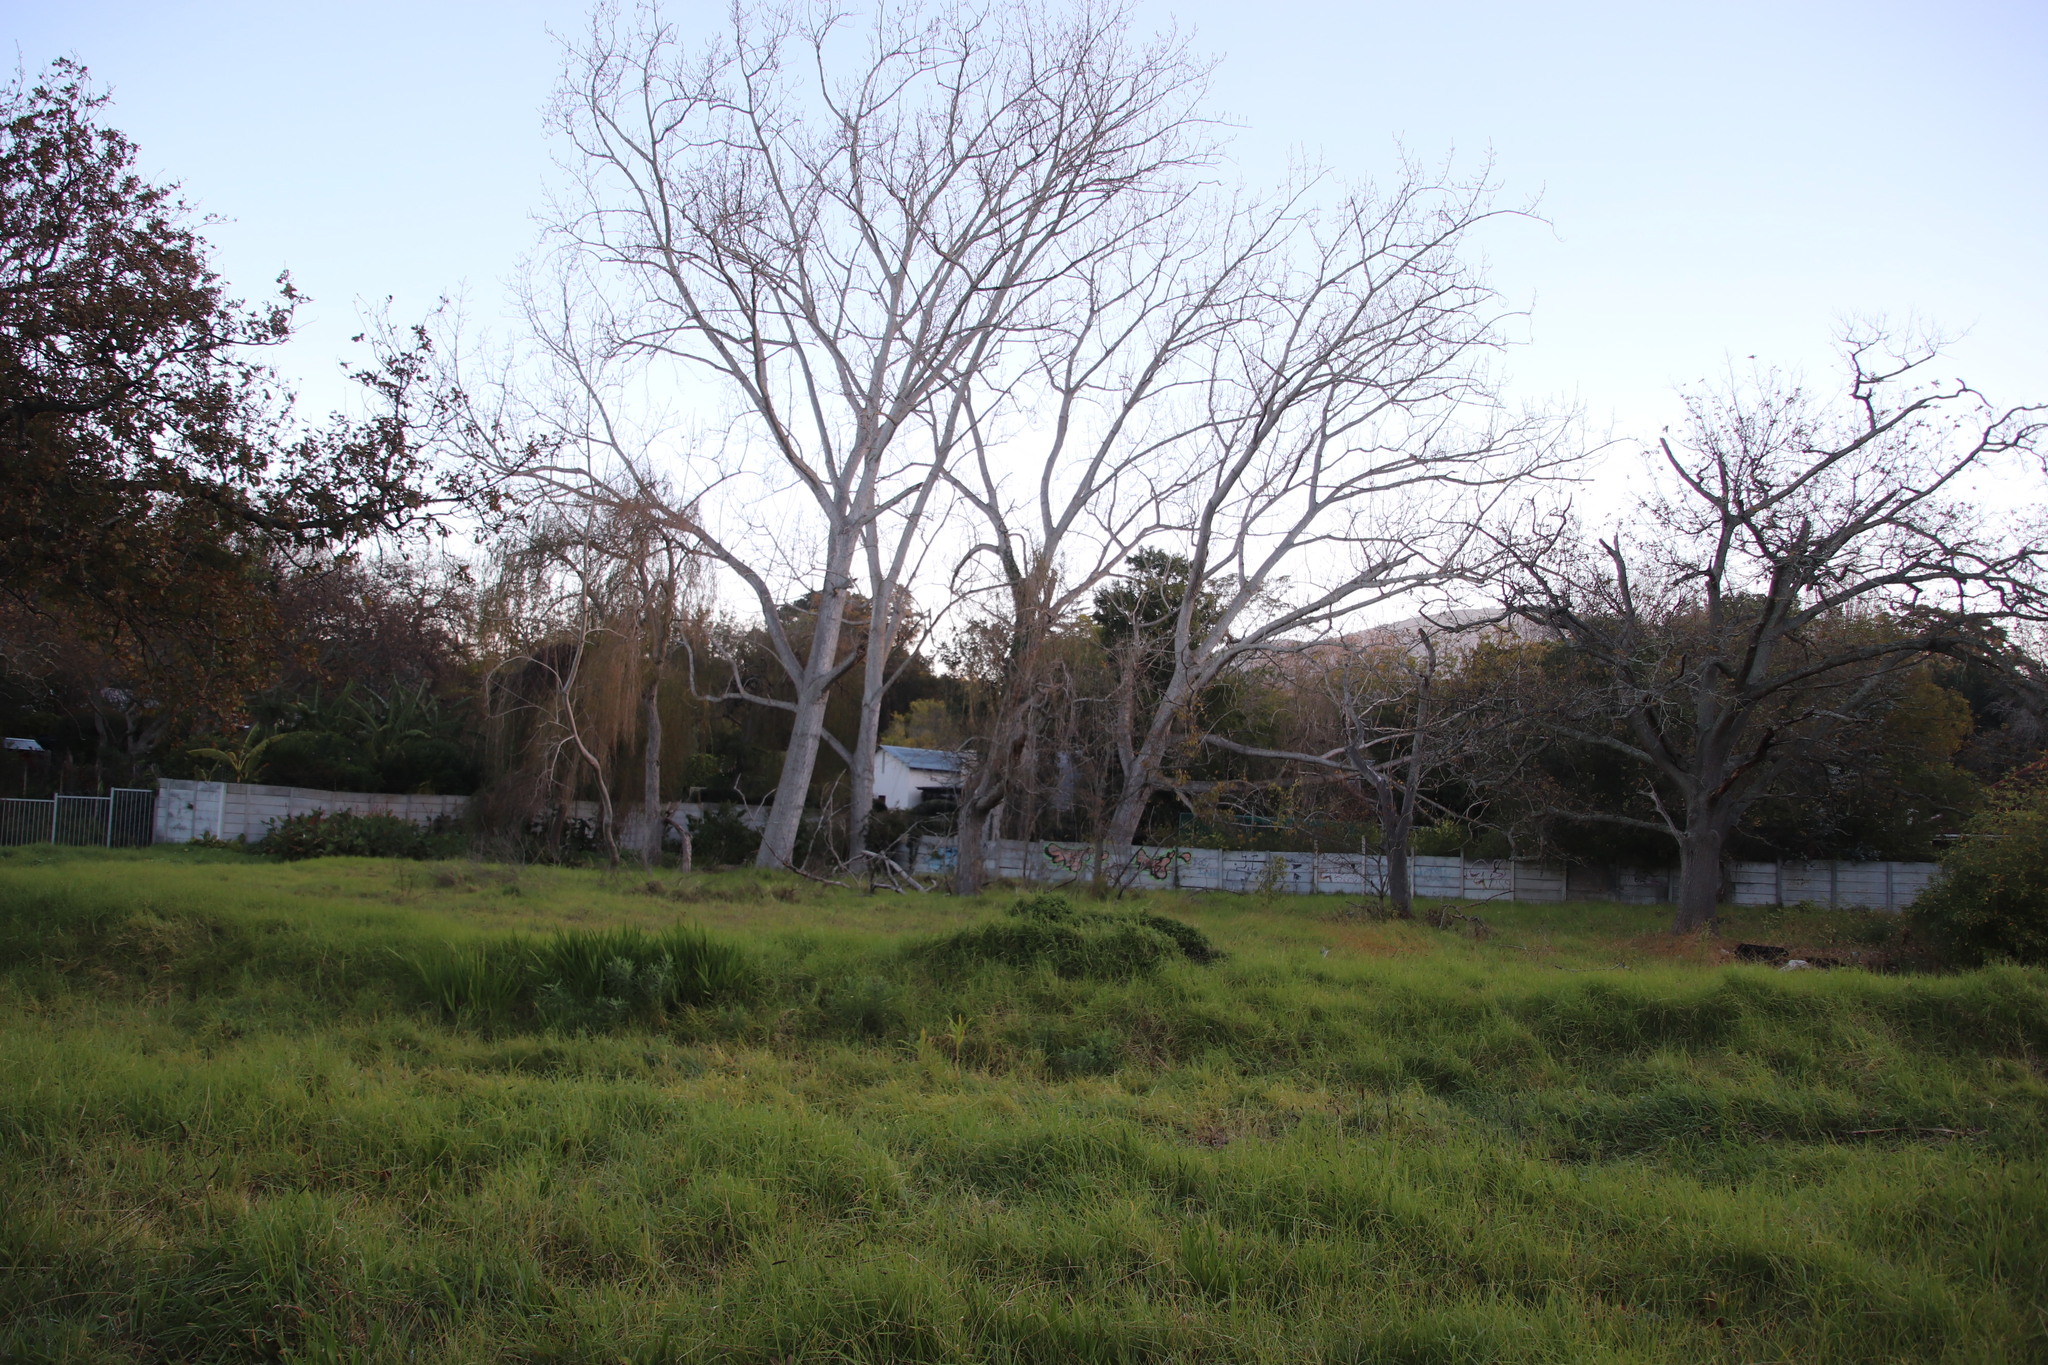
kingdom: Plantae
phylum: Tracheophyta
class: Magnoliopsida
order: Malpighiales
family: Salicaceae
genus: Populus
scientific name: Populus canescens
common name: Gray poplar
